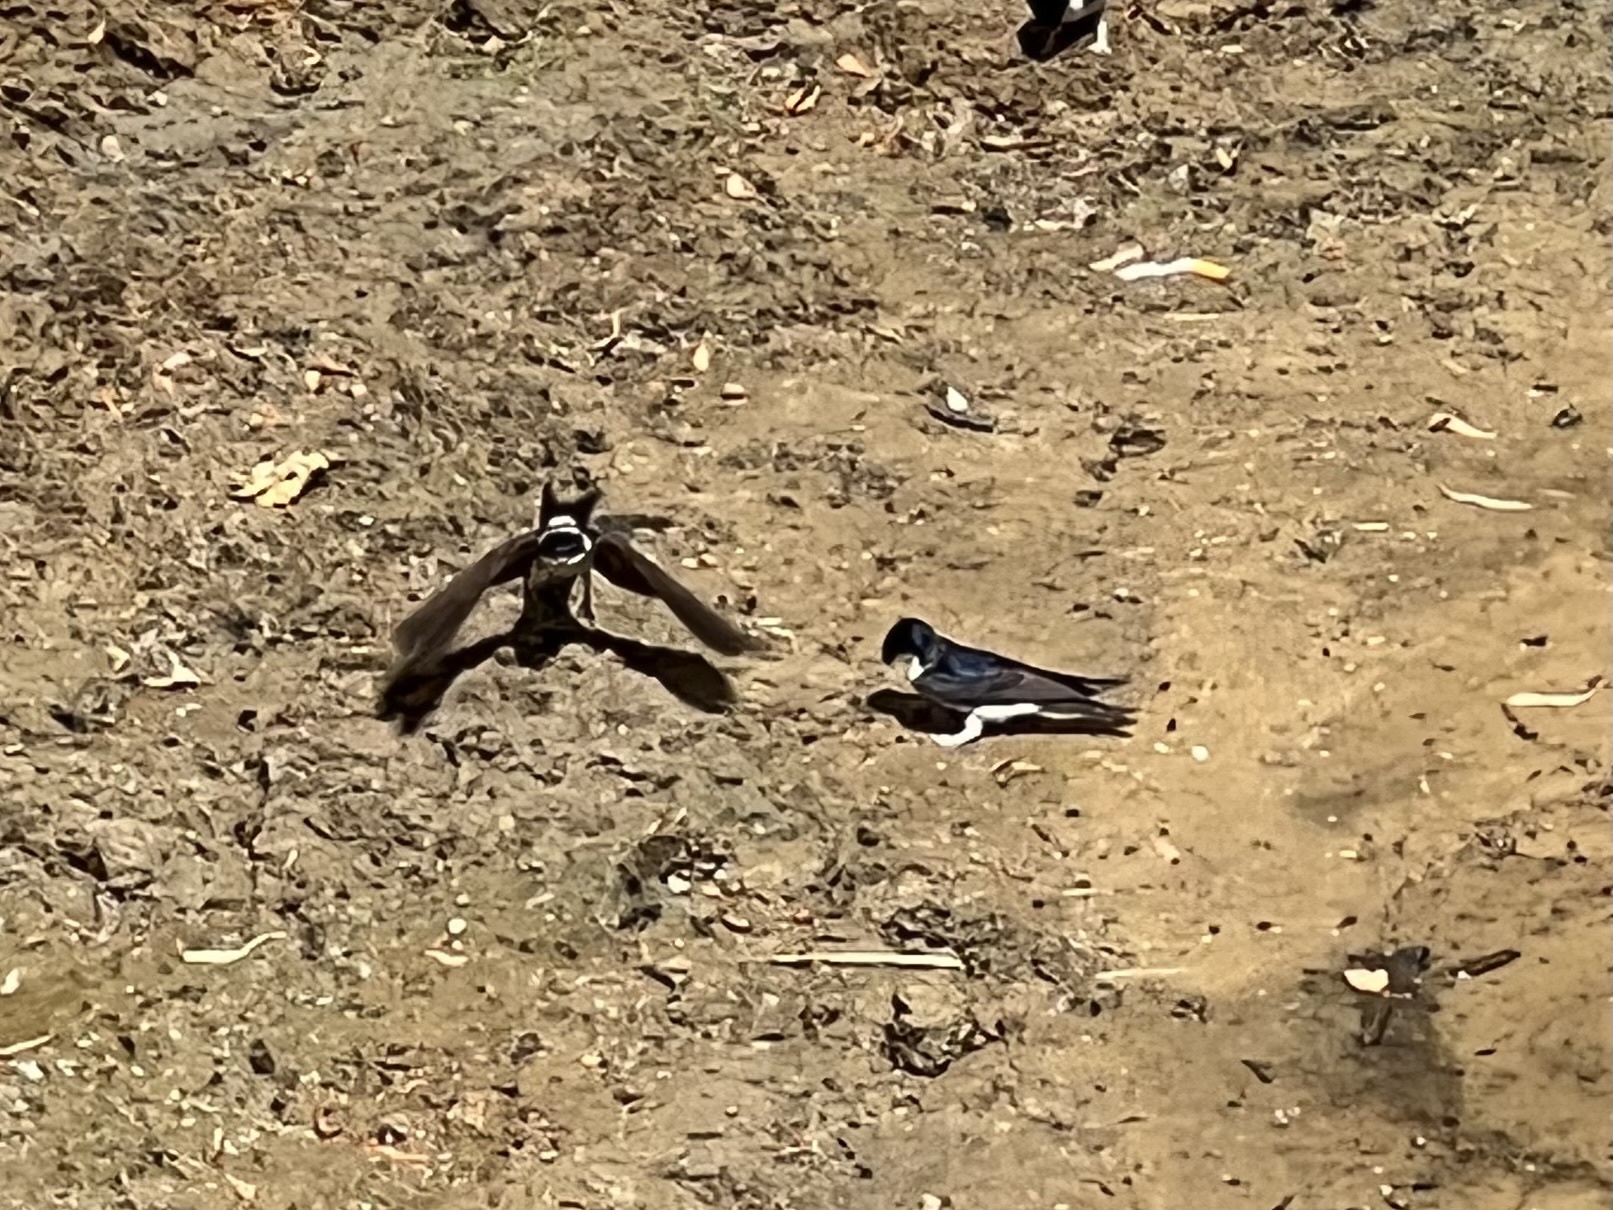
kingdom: Animalia
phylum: Chordata
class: Aves
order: Passeriformes
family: Hirundinidae
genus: Delichon
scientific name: Delichon urbicum
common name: Common house martin
